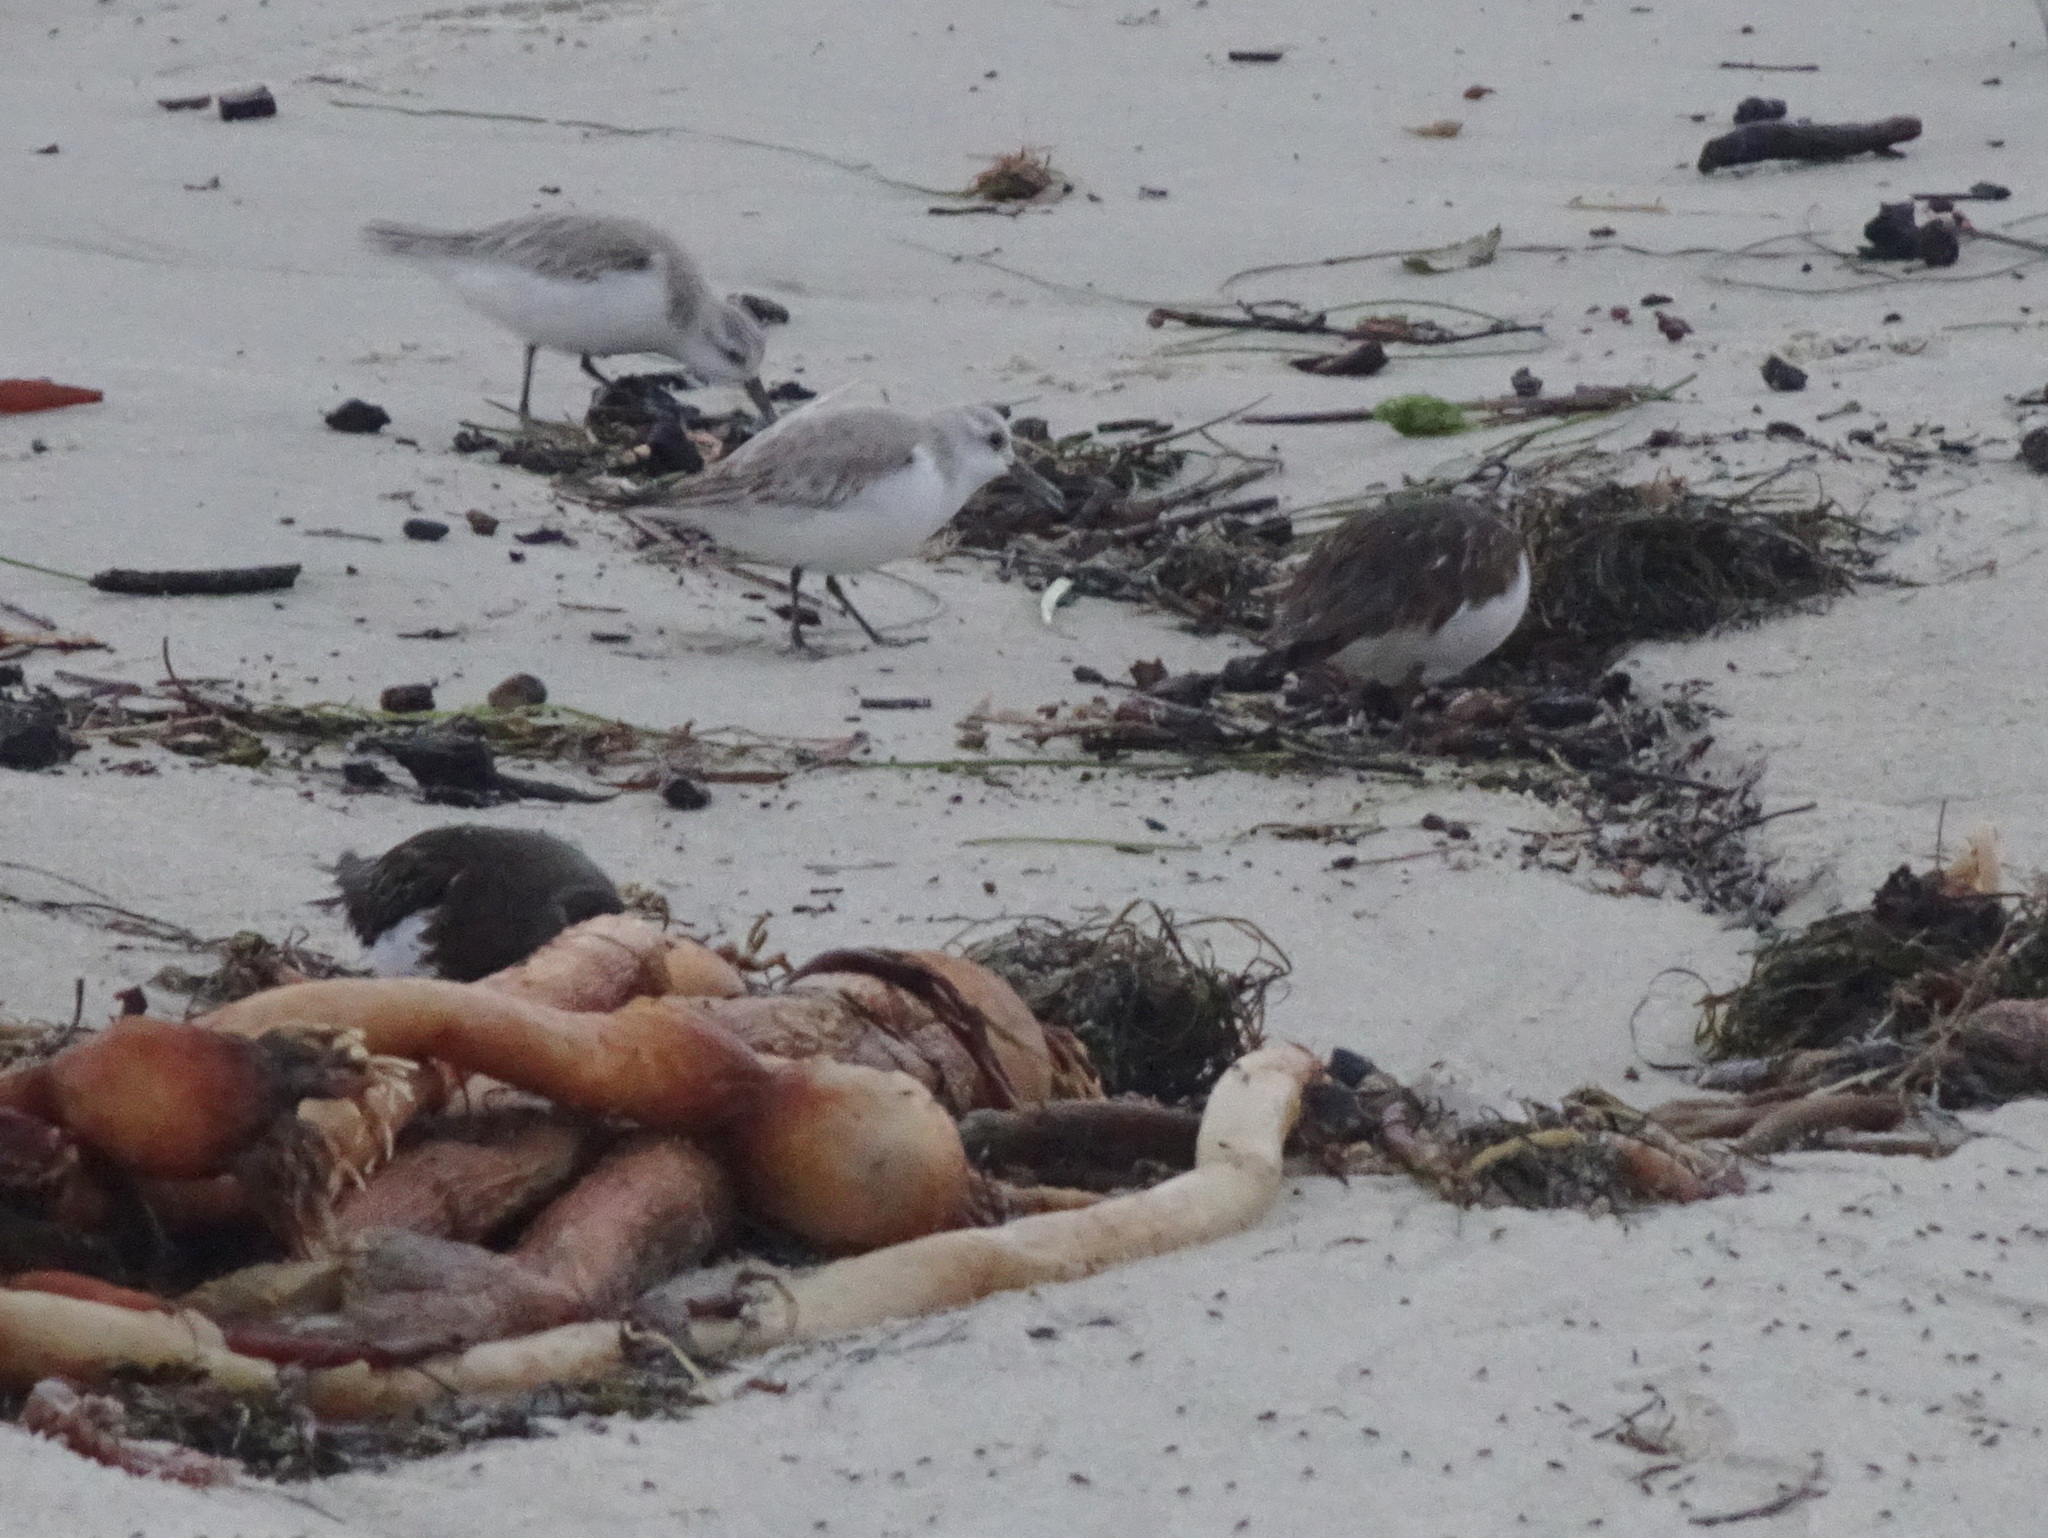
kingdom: Animalia
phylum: Chordata
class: Aves
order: Charadriiformes
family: Scolopacidae
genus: Arenaria
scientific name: Arenaria melanocephala
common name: Black turnstone
